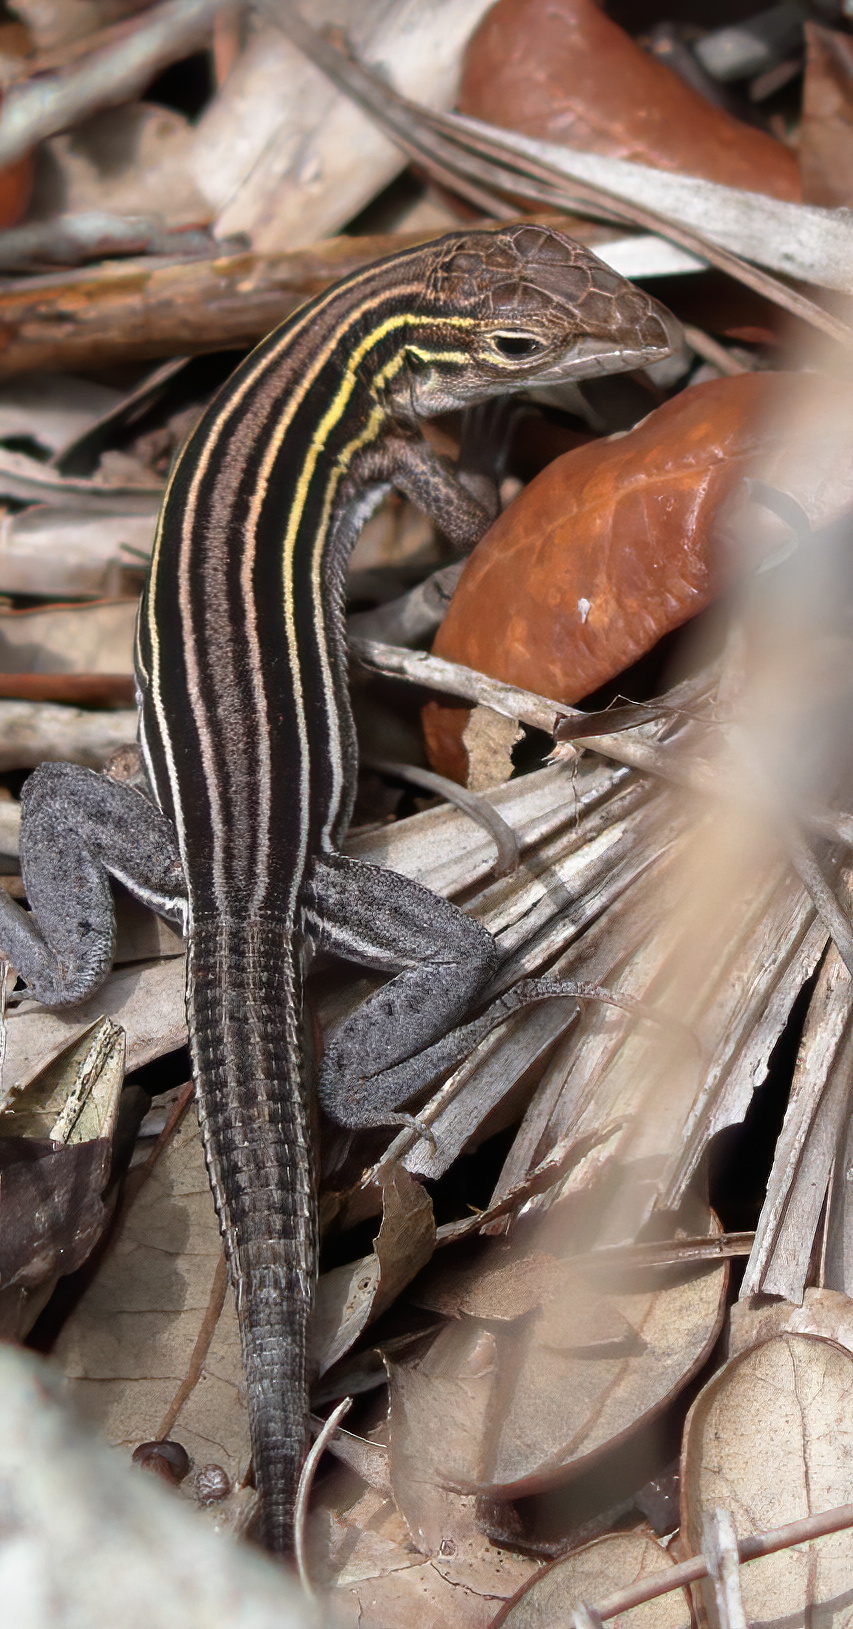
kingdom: Animalia
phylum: Chordata
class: Squamata
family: Teiidae
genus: Aspidoscelis
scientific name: Aspidoscelis sexlineatus
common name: Six-lined racerunner
